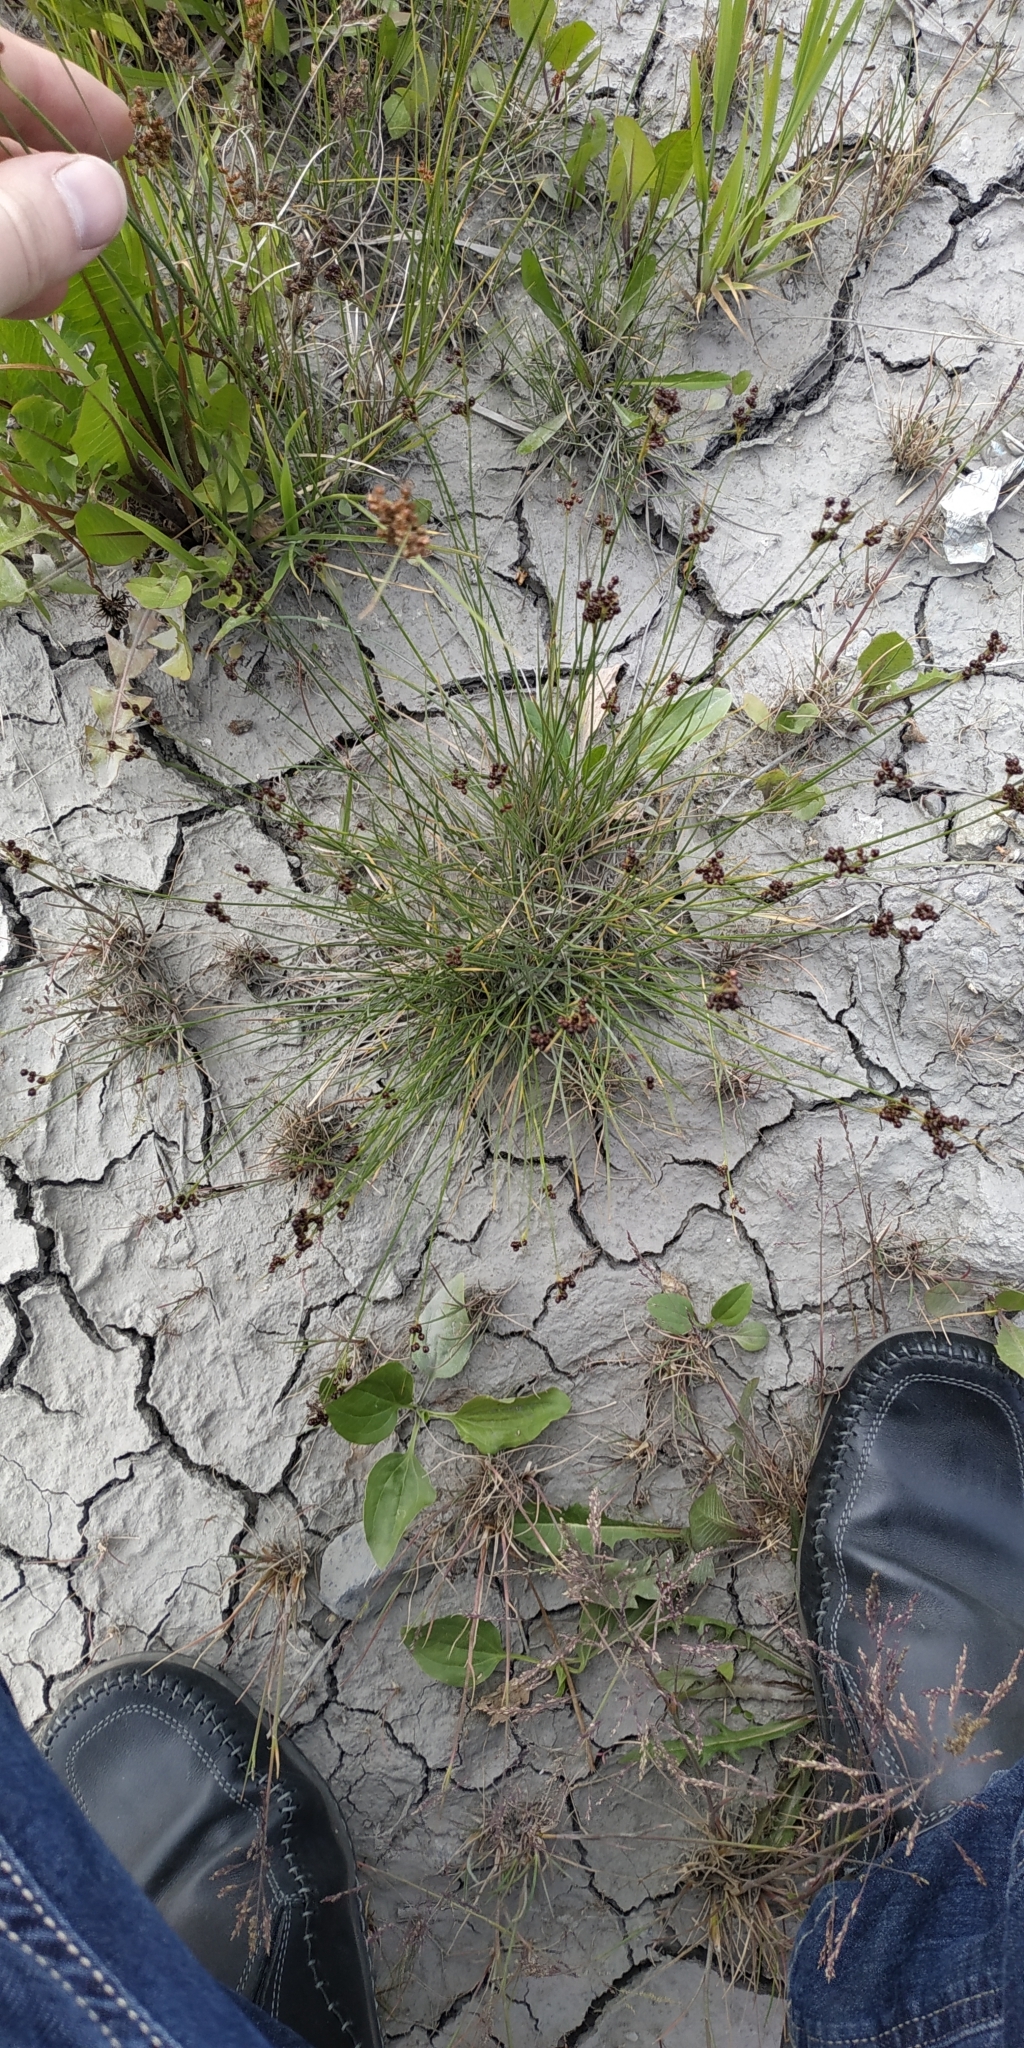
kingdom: Plantae
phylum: Tracheophyta
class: Liliopsida
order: Poales
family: Juncaceae
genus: Juncus
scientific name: Juncus compressus
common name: Round-fruited rush
